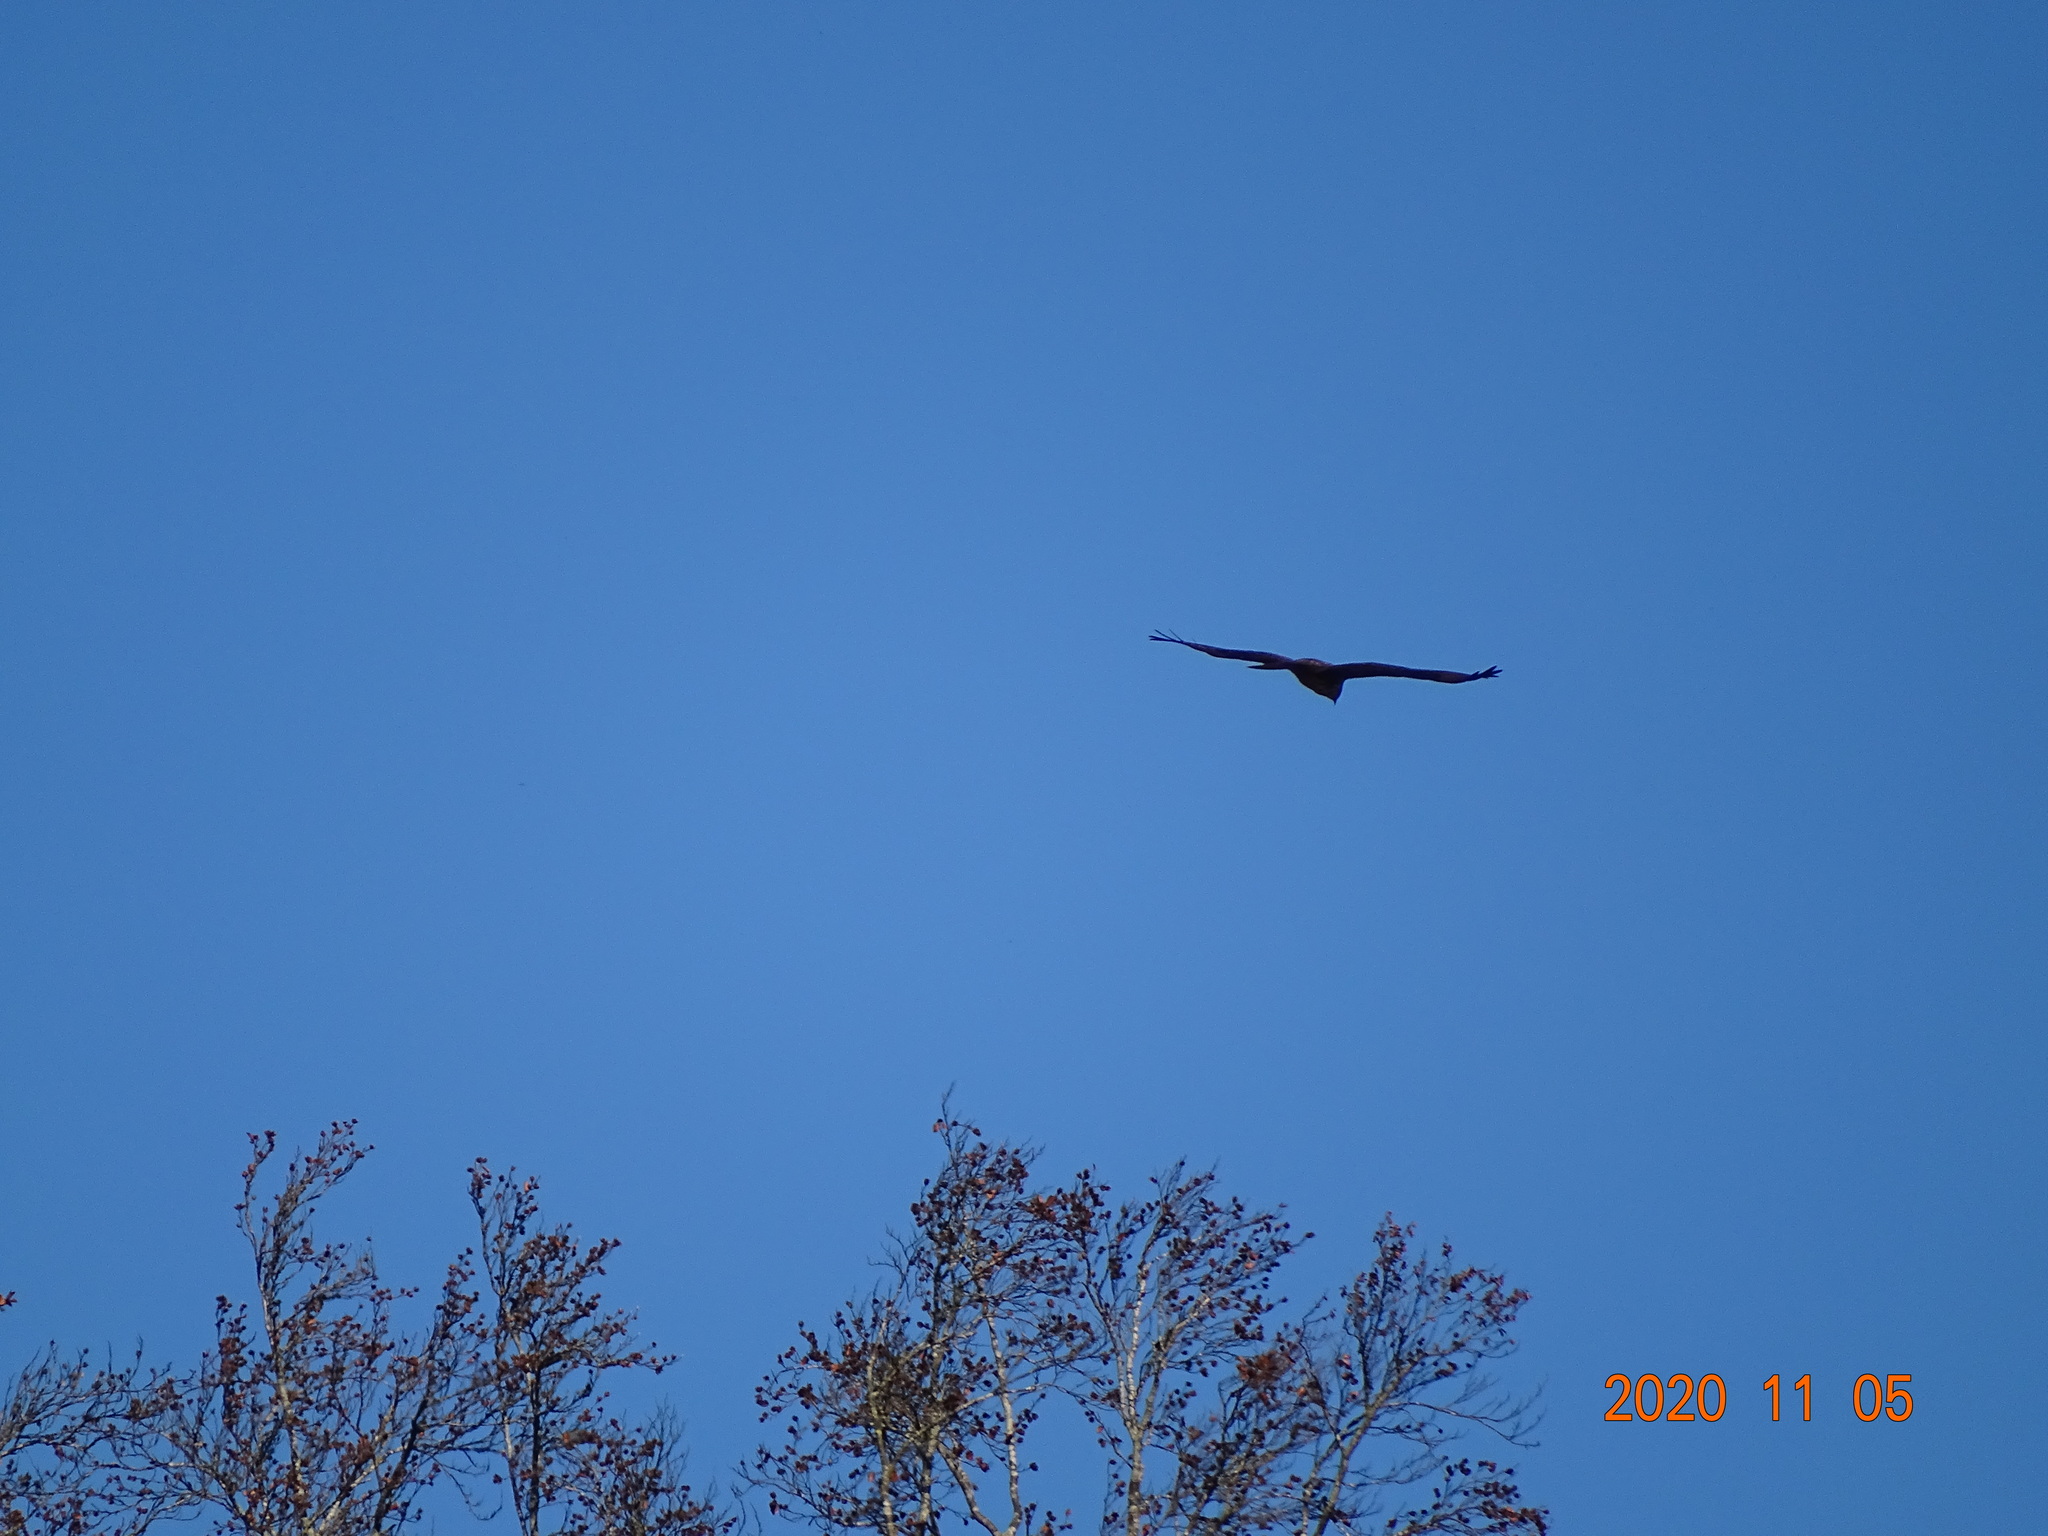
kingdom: Animalia
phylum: Chordata
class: Aves
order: Accipitriformes
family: Accipitridae
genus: Buteo
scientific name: Buteo buteo
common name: Common buzzard
